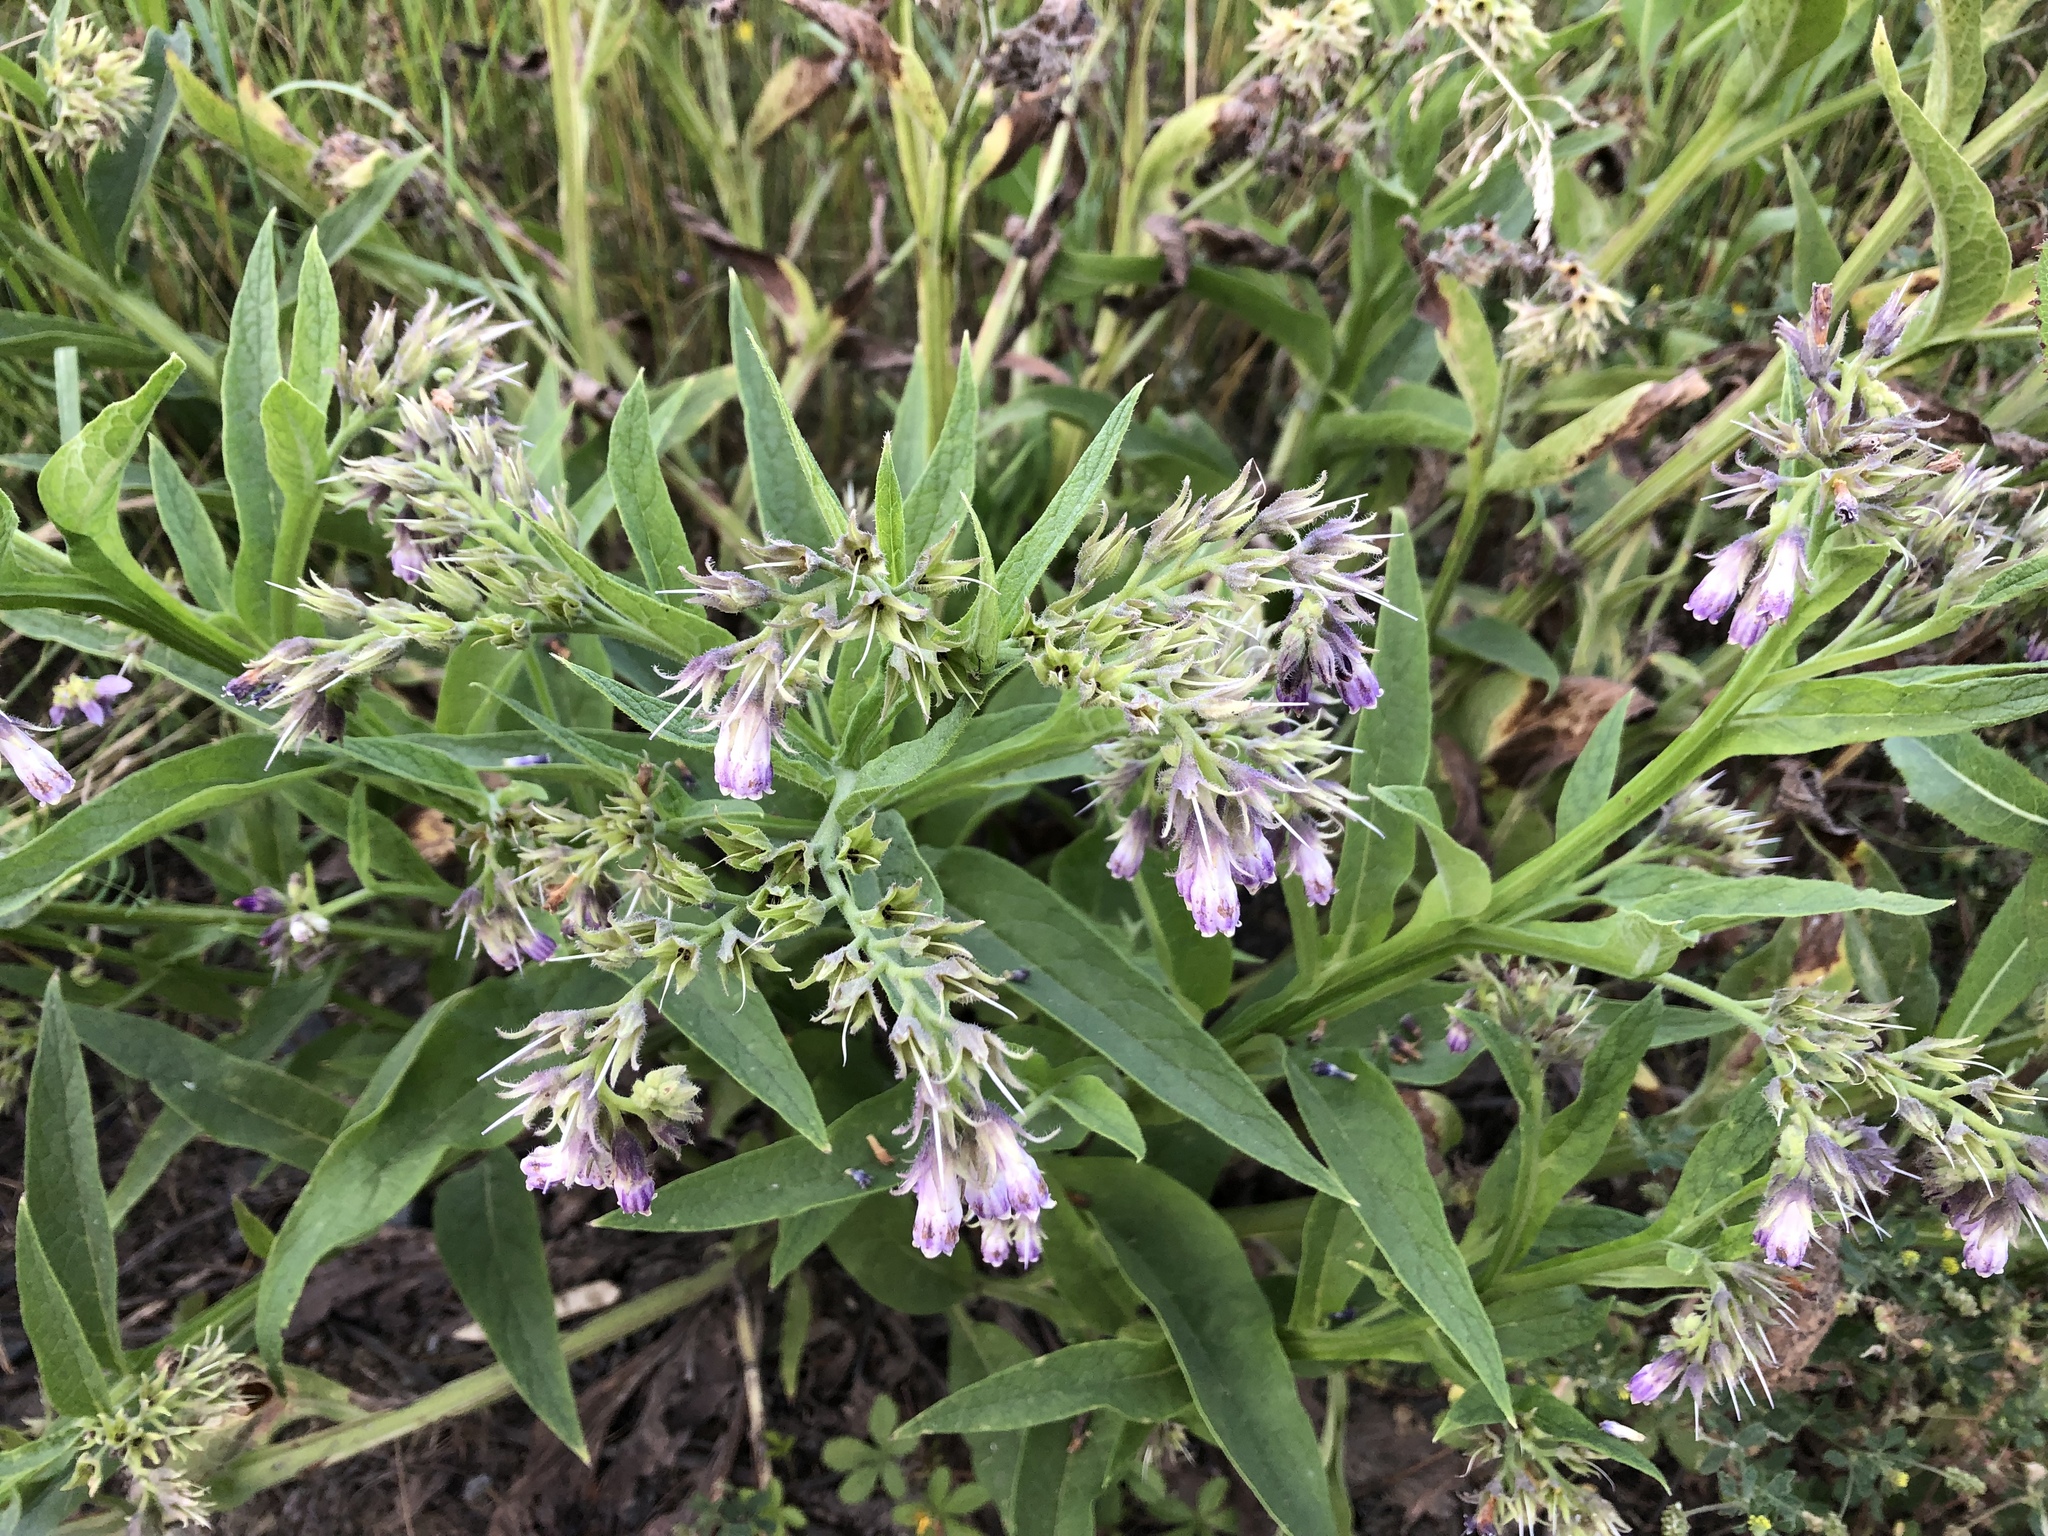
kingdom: Plantae
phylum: Tracheophyta
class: Magnoliopsida
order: Boraginales
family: Boraginaceae
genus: Symphytum
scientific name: Symphytum officinale
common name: Common comfrey
